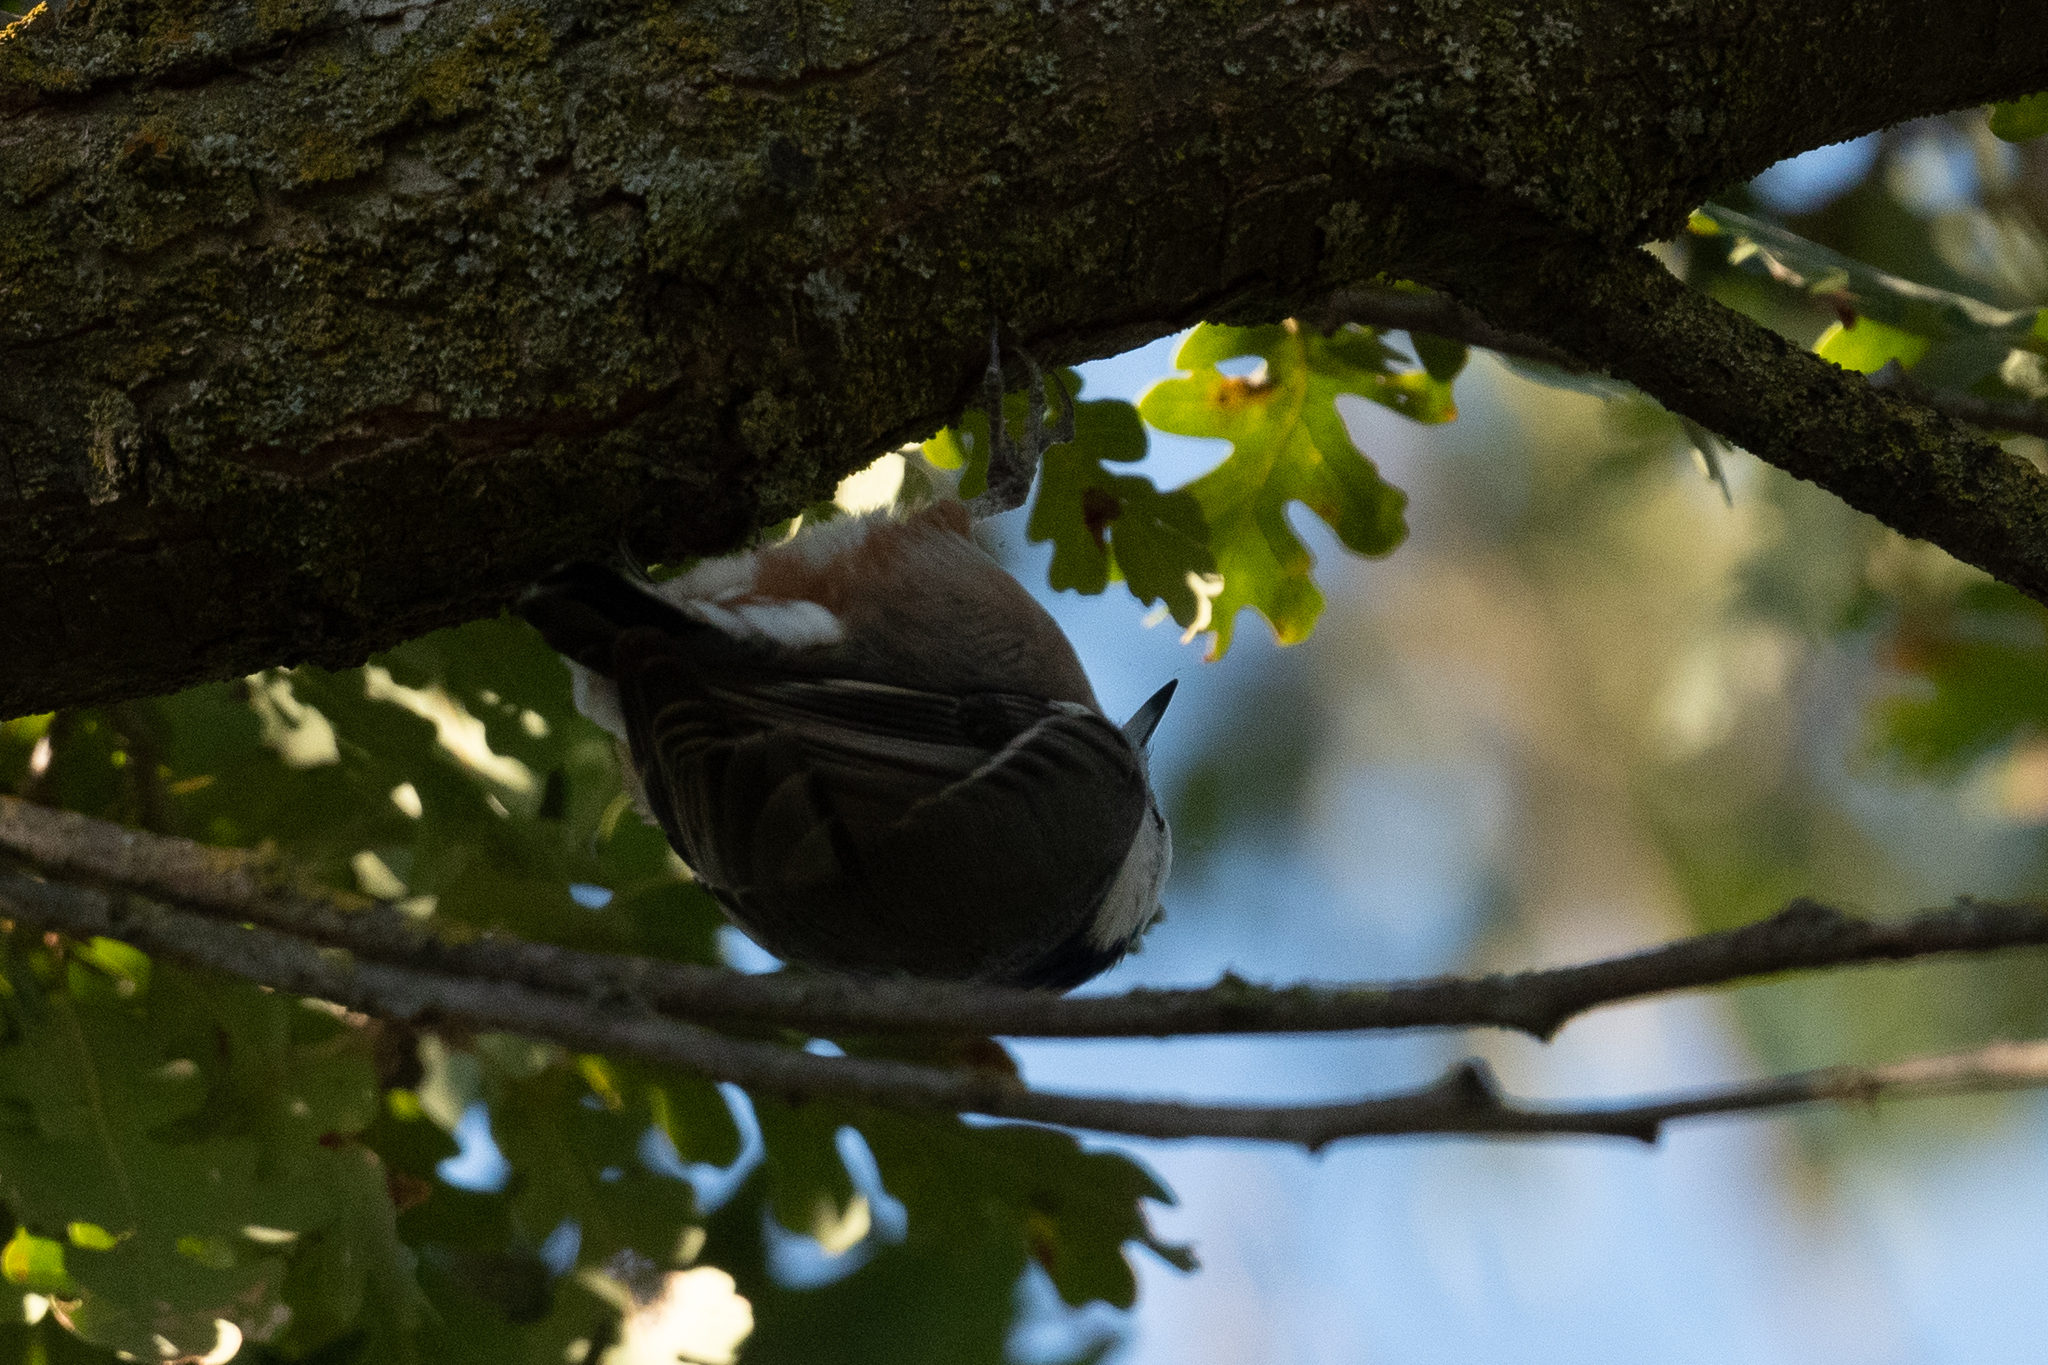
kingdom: Animalia
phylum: Chordata
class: Aves
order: Passeriformes
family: Sittidae
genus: Sitta
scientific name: Sitta carolinensis
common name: White-breasted nuthatch
